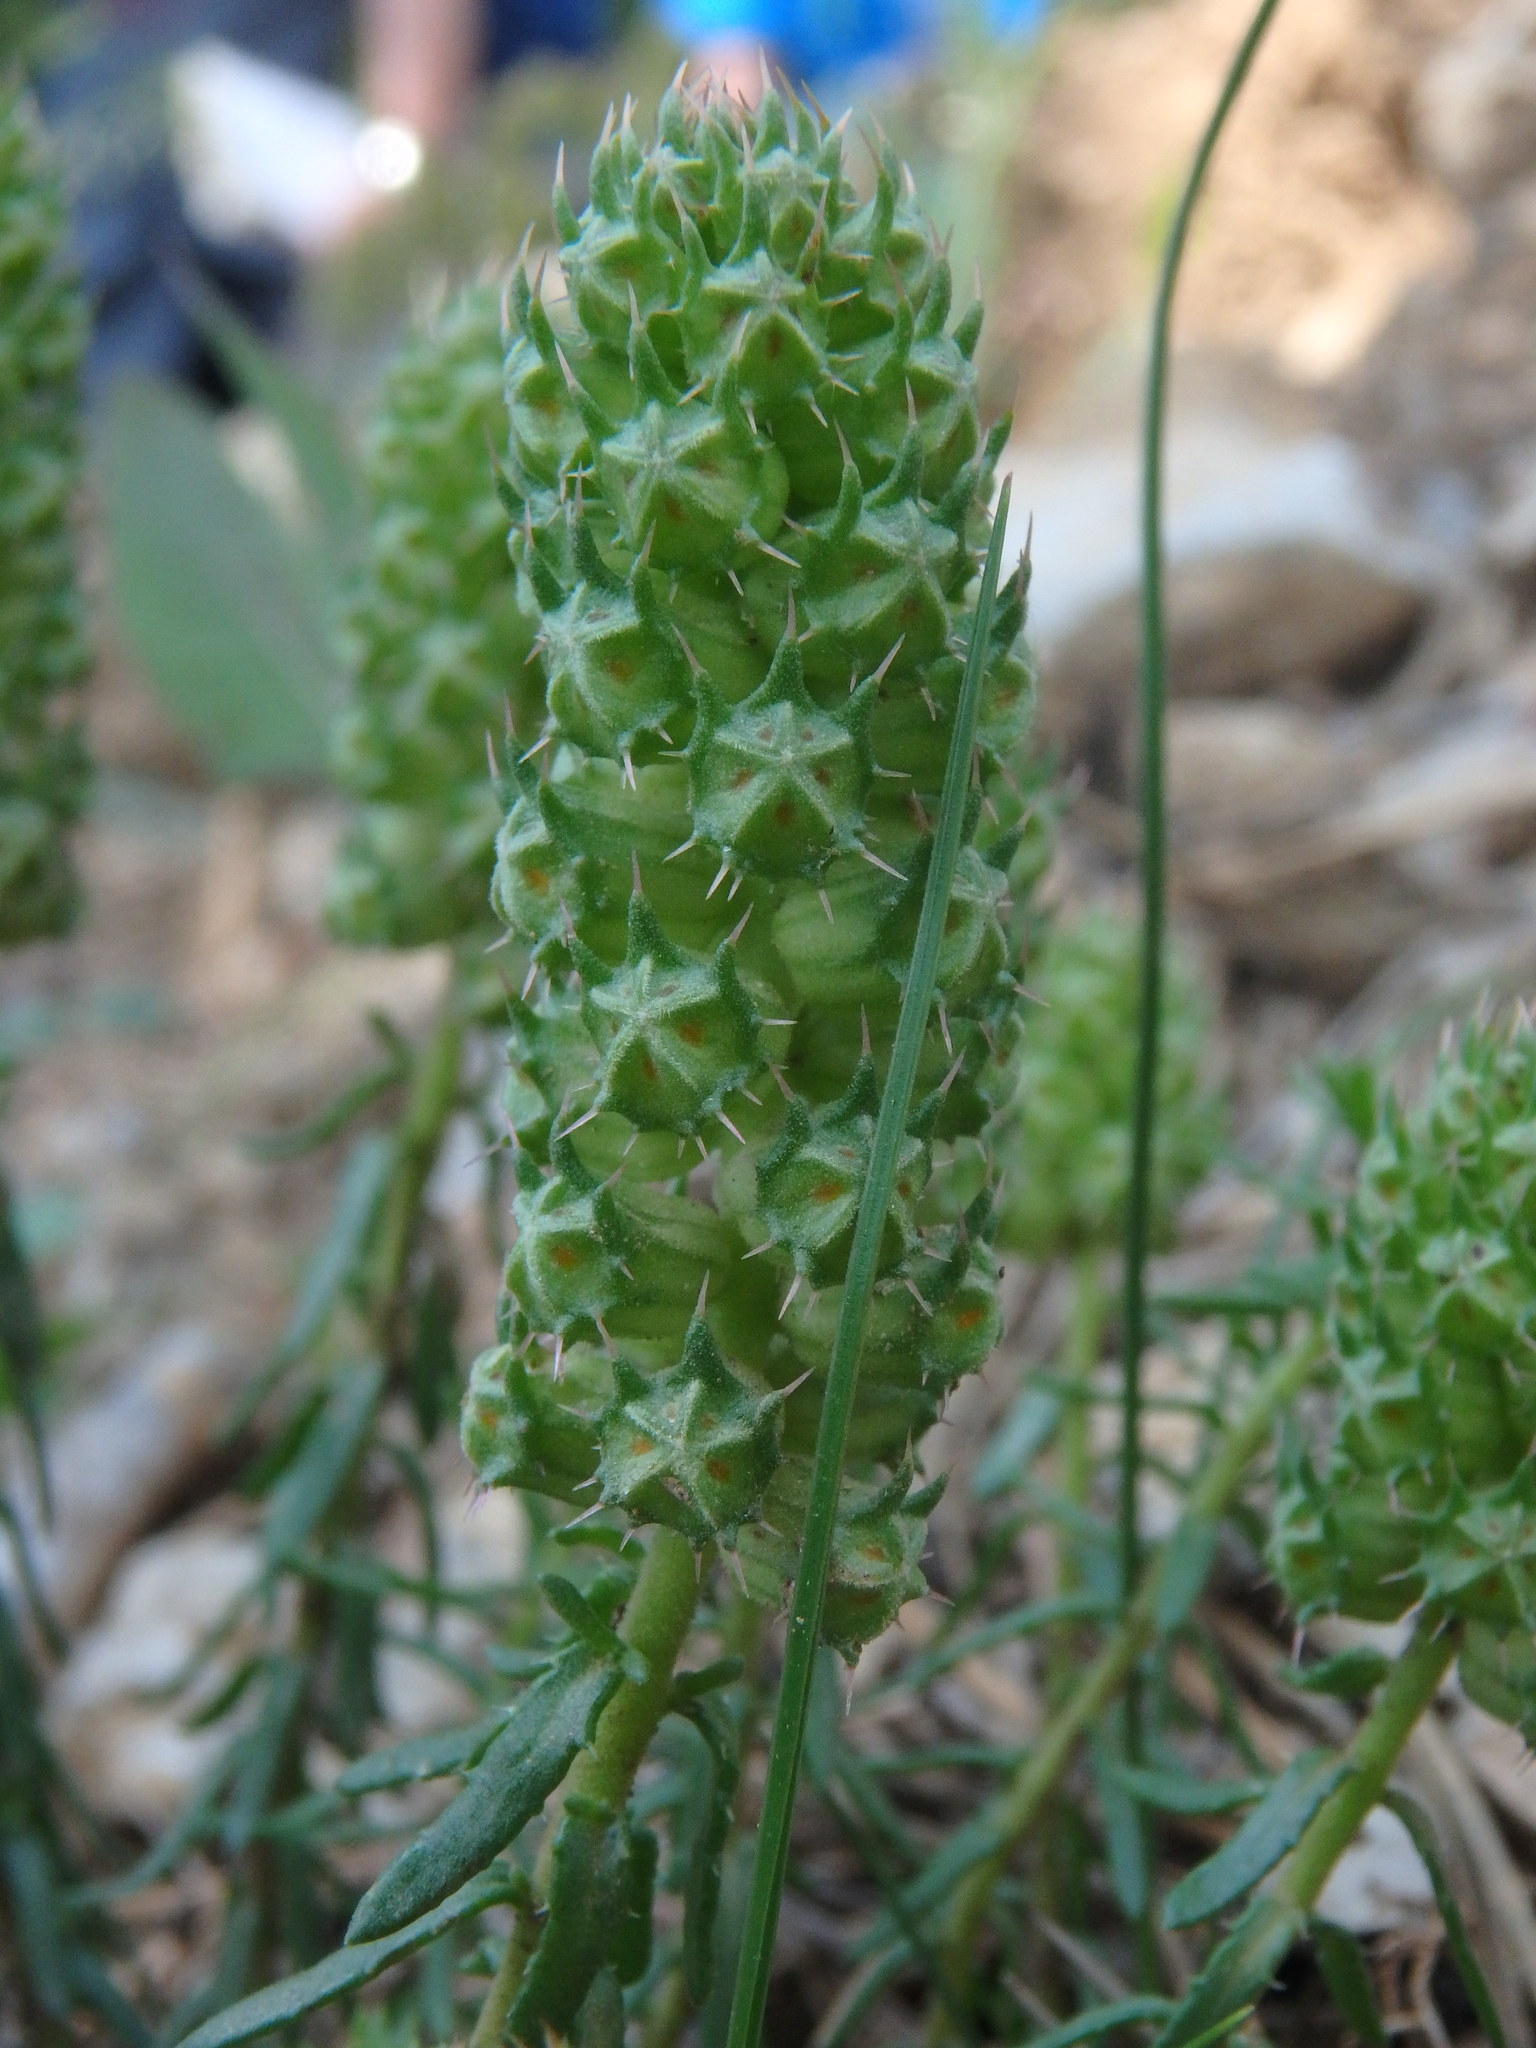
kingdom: Plantae
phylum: Tracheophyta
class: Magnoliopsida
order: Ericales
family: Primulaceae
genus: Coris
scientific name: Coris monspeliensis
